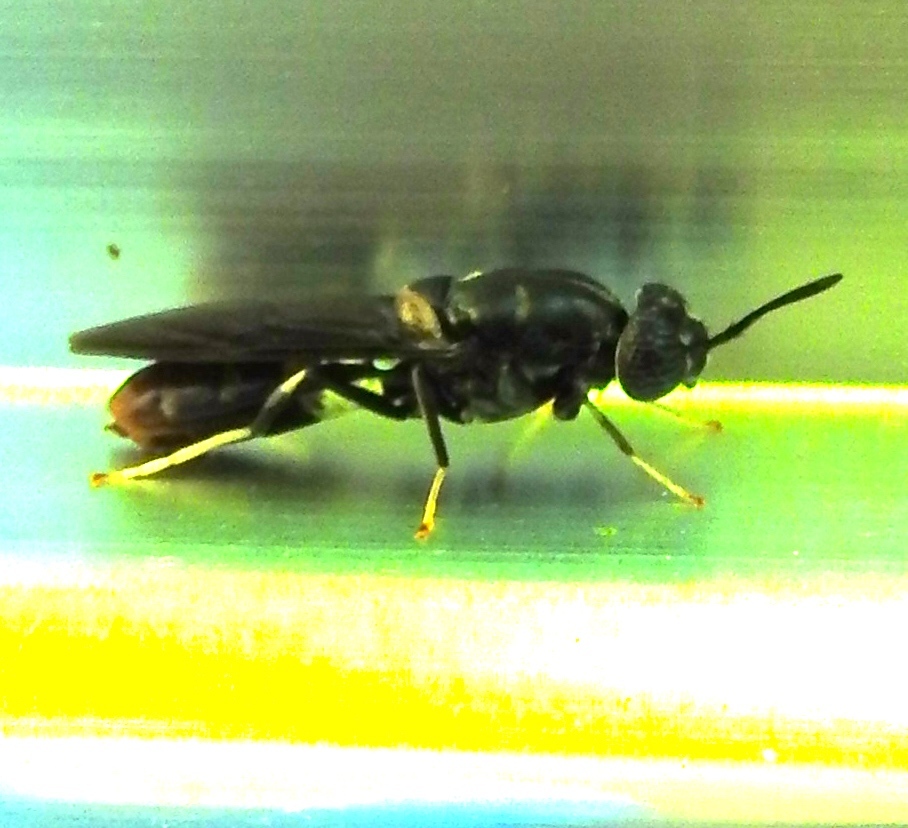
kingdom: Animalia
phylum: Arthropoda
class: Insecta
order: Diptera
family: Stratiomyidae
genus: Hermetia
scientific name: Hermetia
